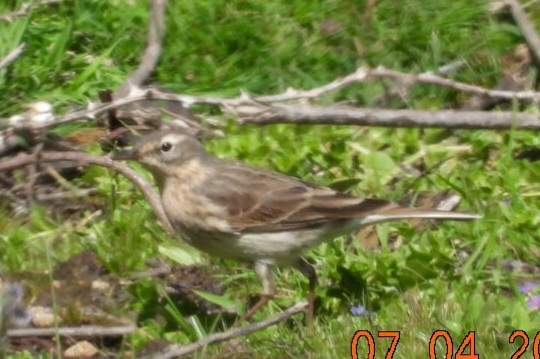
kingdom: Animalia
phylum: Chordata
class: Aves
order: Passeriformes
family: Motacillidae
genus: Anthus
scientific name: Anthus spinoletta
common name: Water pipit
